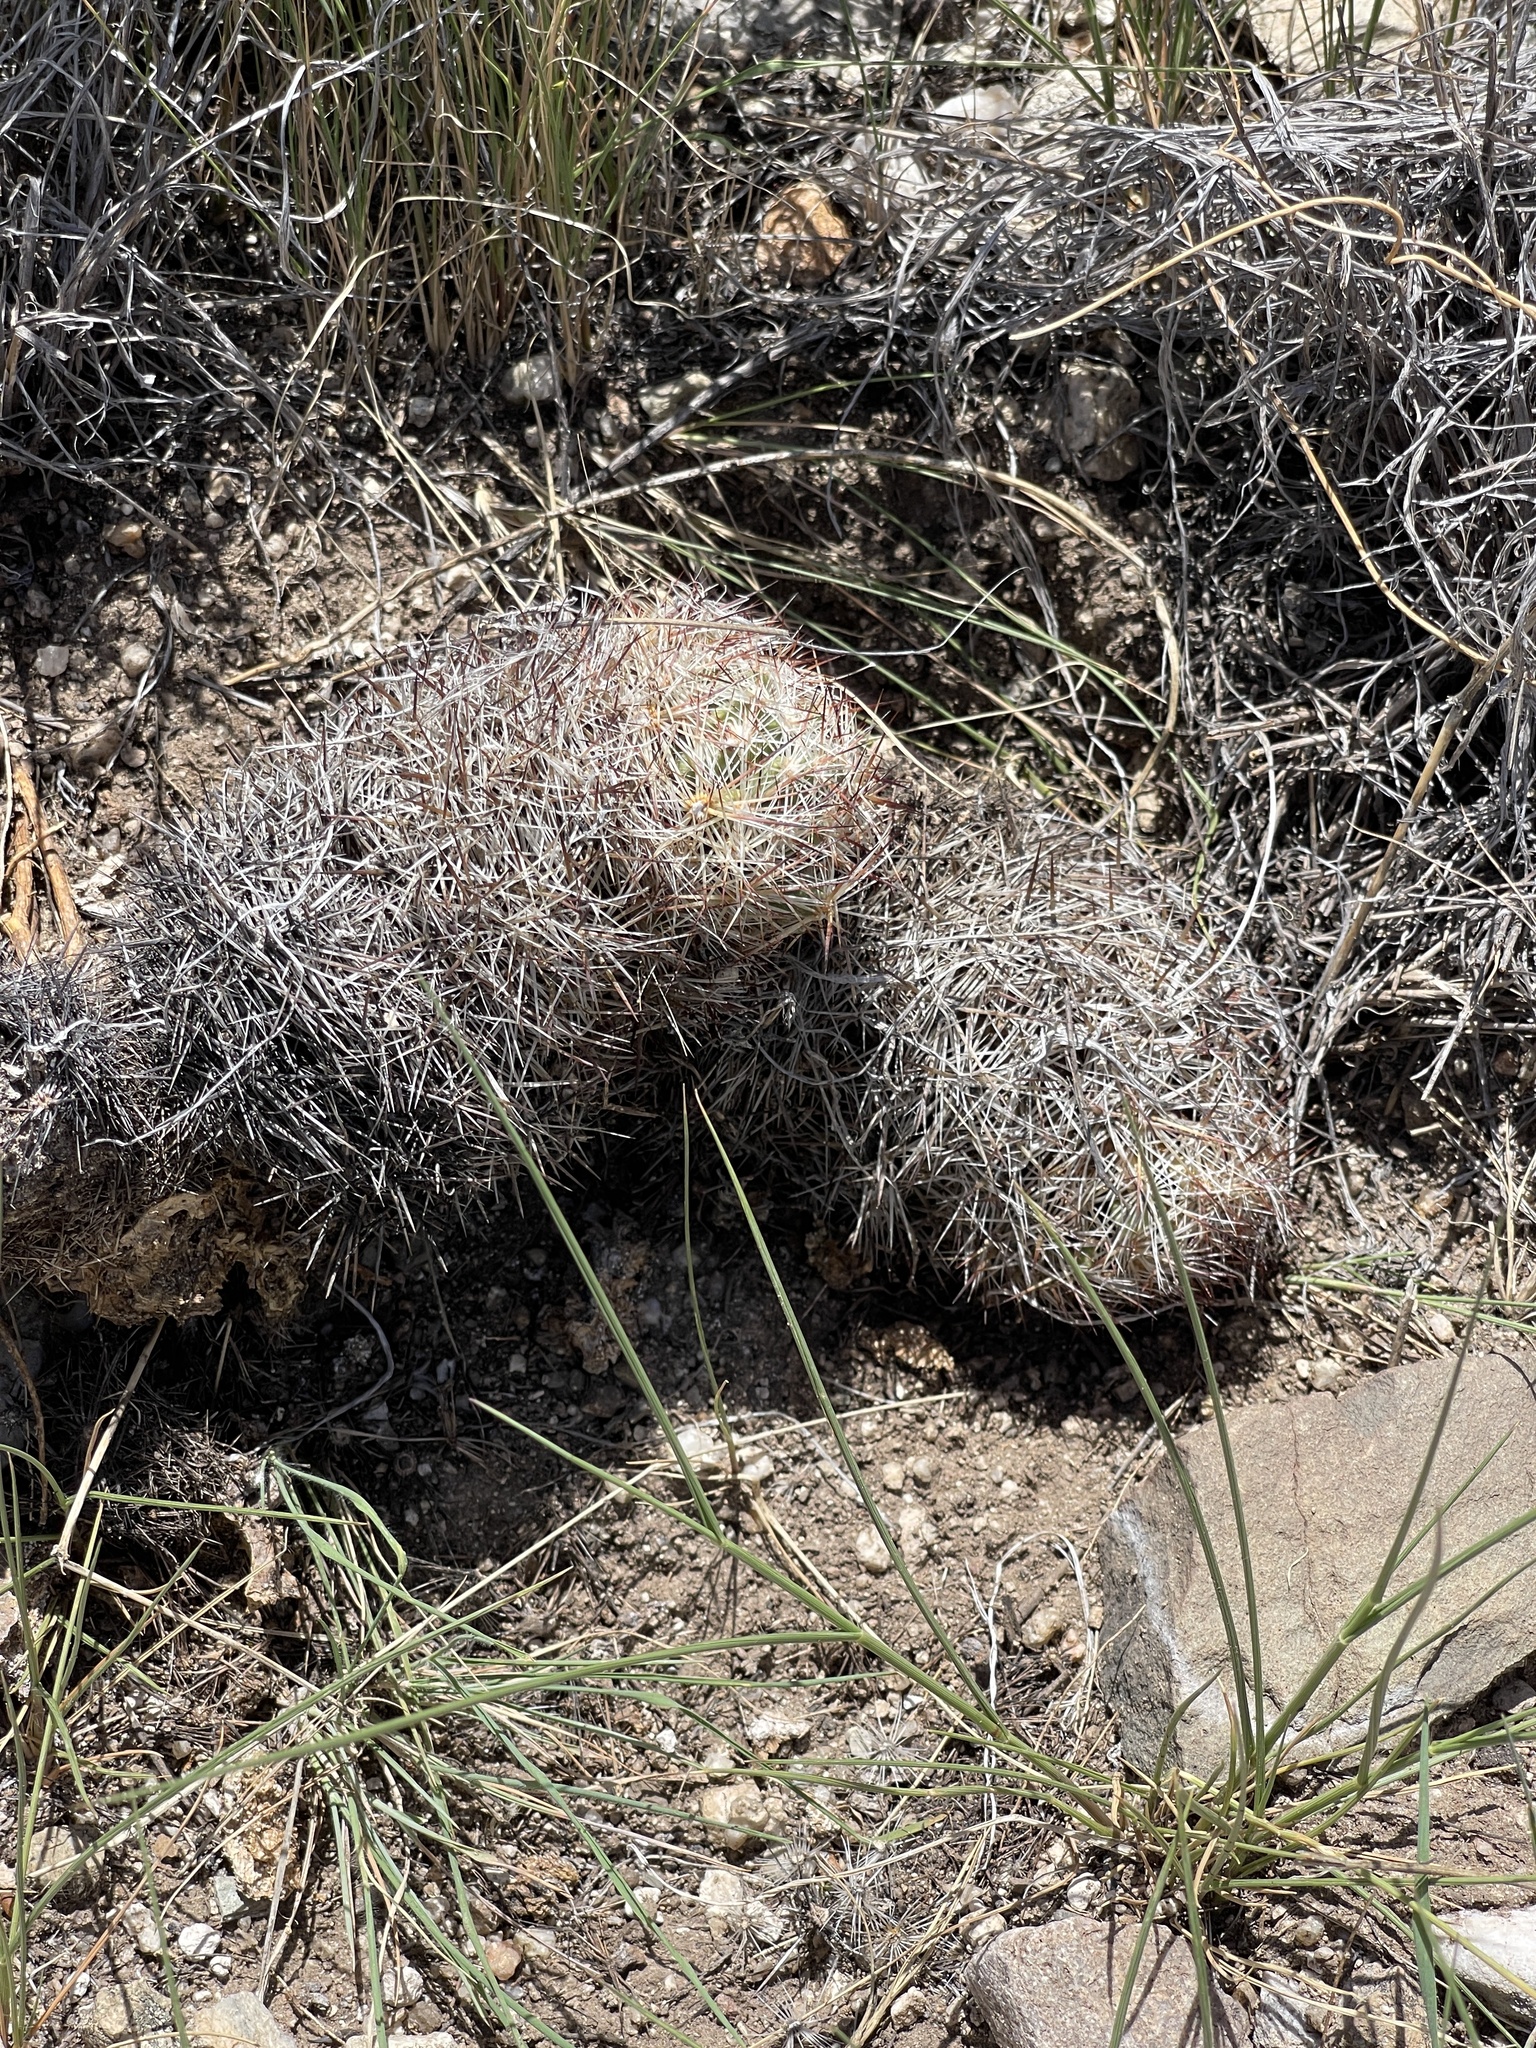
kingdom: Plantae
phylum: Tracheophyta
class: Magnoliopsida
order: Caryophyllales
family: Cactaceae
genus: Pelecyphora
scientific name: Pelecyphora vivipara
